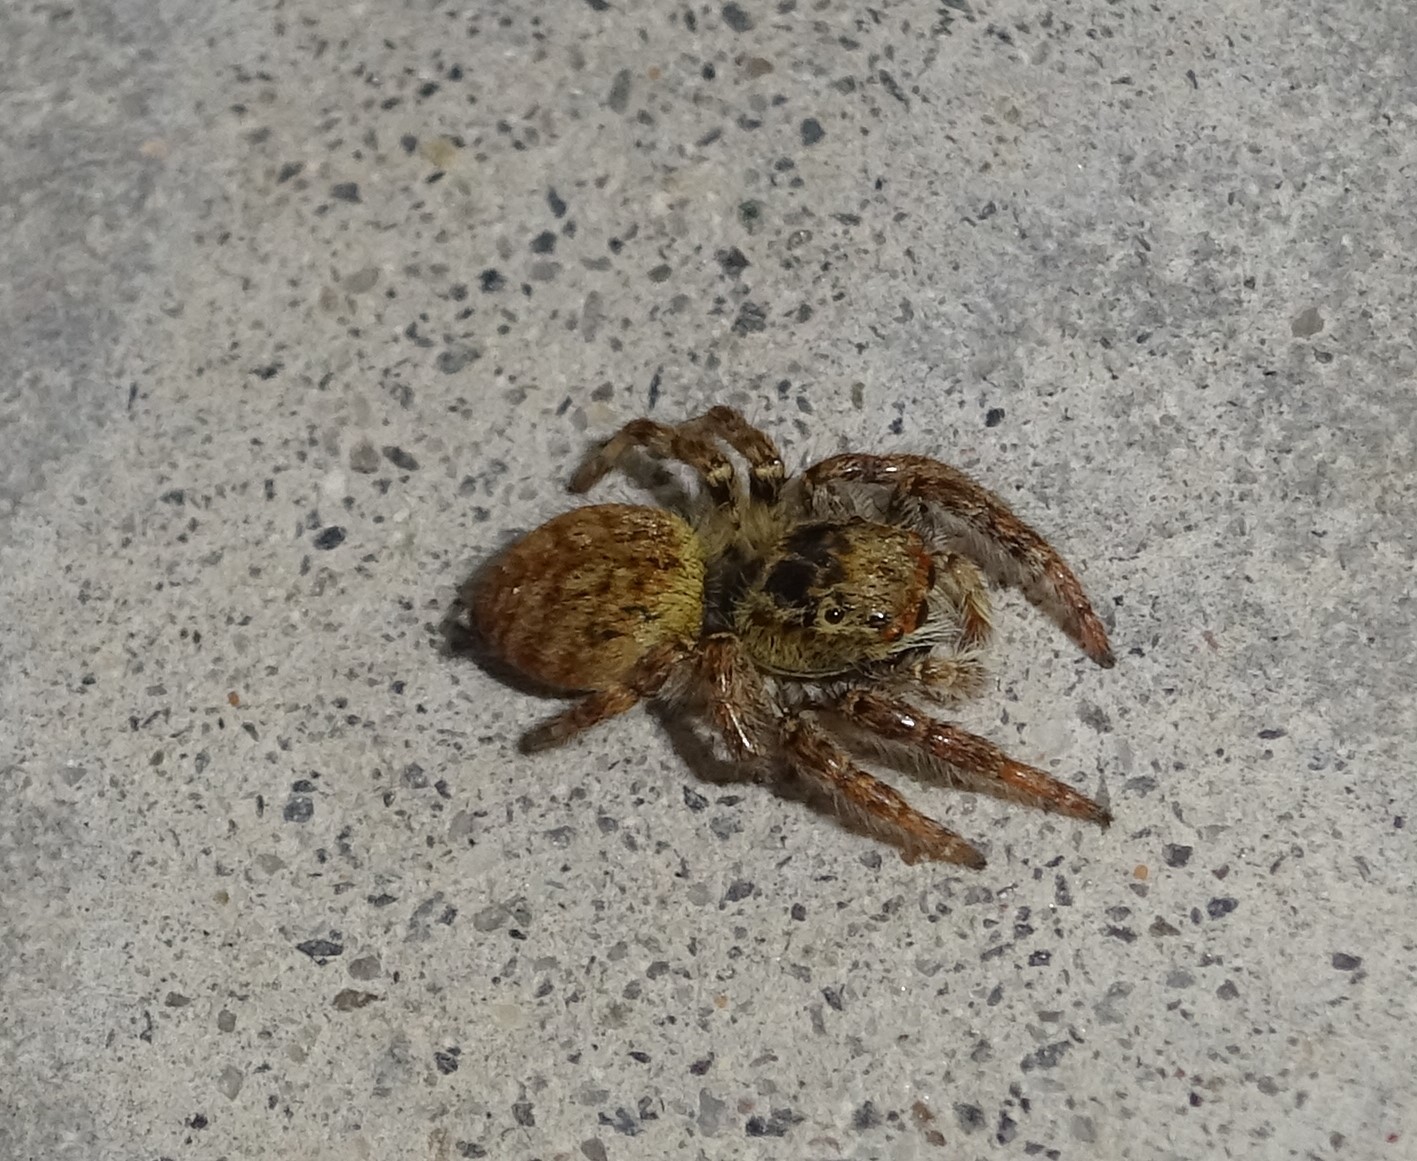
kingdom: Animalia
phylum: Arthropoda
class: Arachnida
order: Araneae
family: Salticidae
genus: Carrhotus
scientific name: Carrhotus xanthogramma
